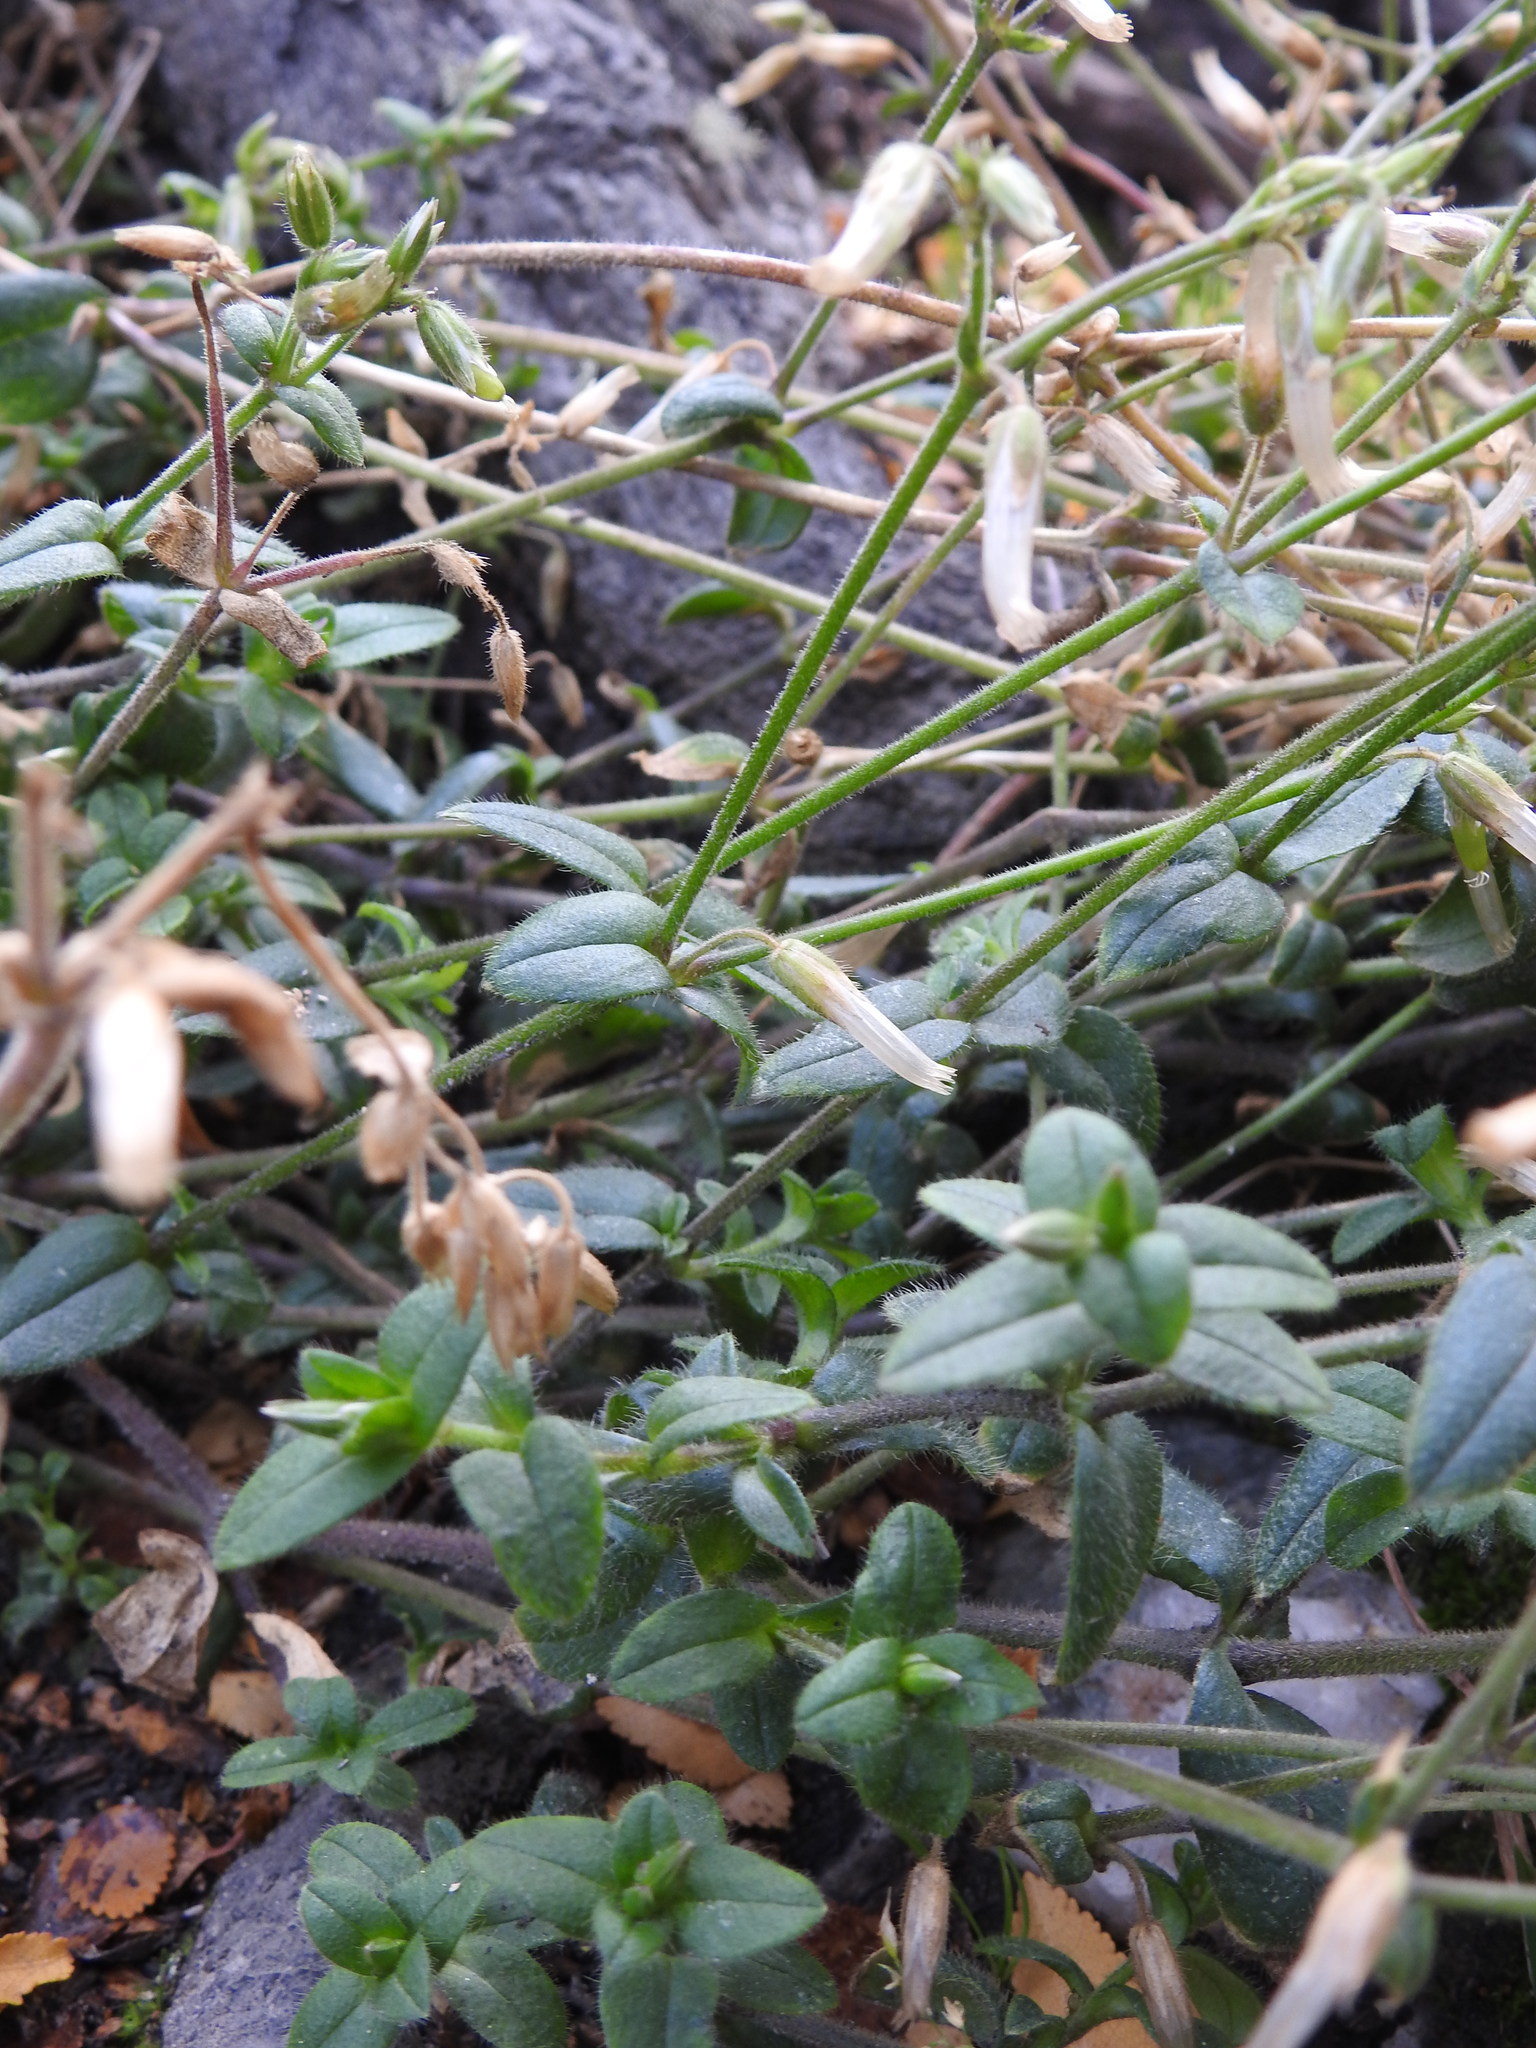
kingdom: Plantae
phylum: Tracheophyta
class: Magnoliopsida
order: Caryophyllales
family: Caryophyllaceae
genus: Cerastium
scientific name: Cerastium fontanum
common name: Common mouse-ear
